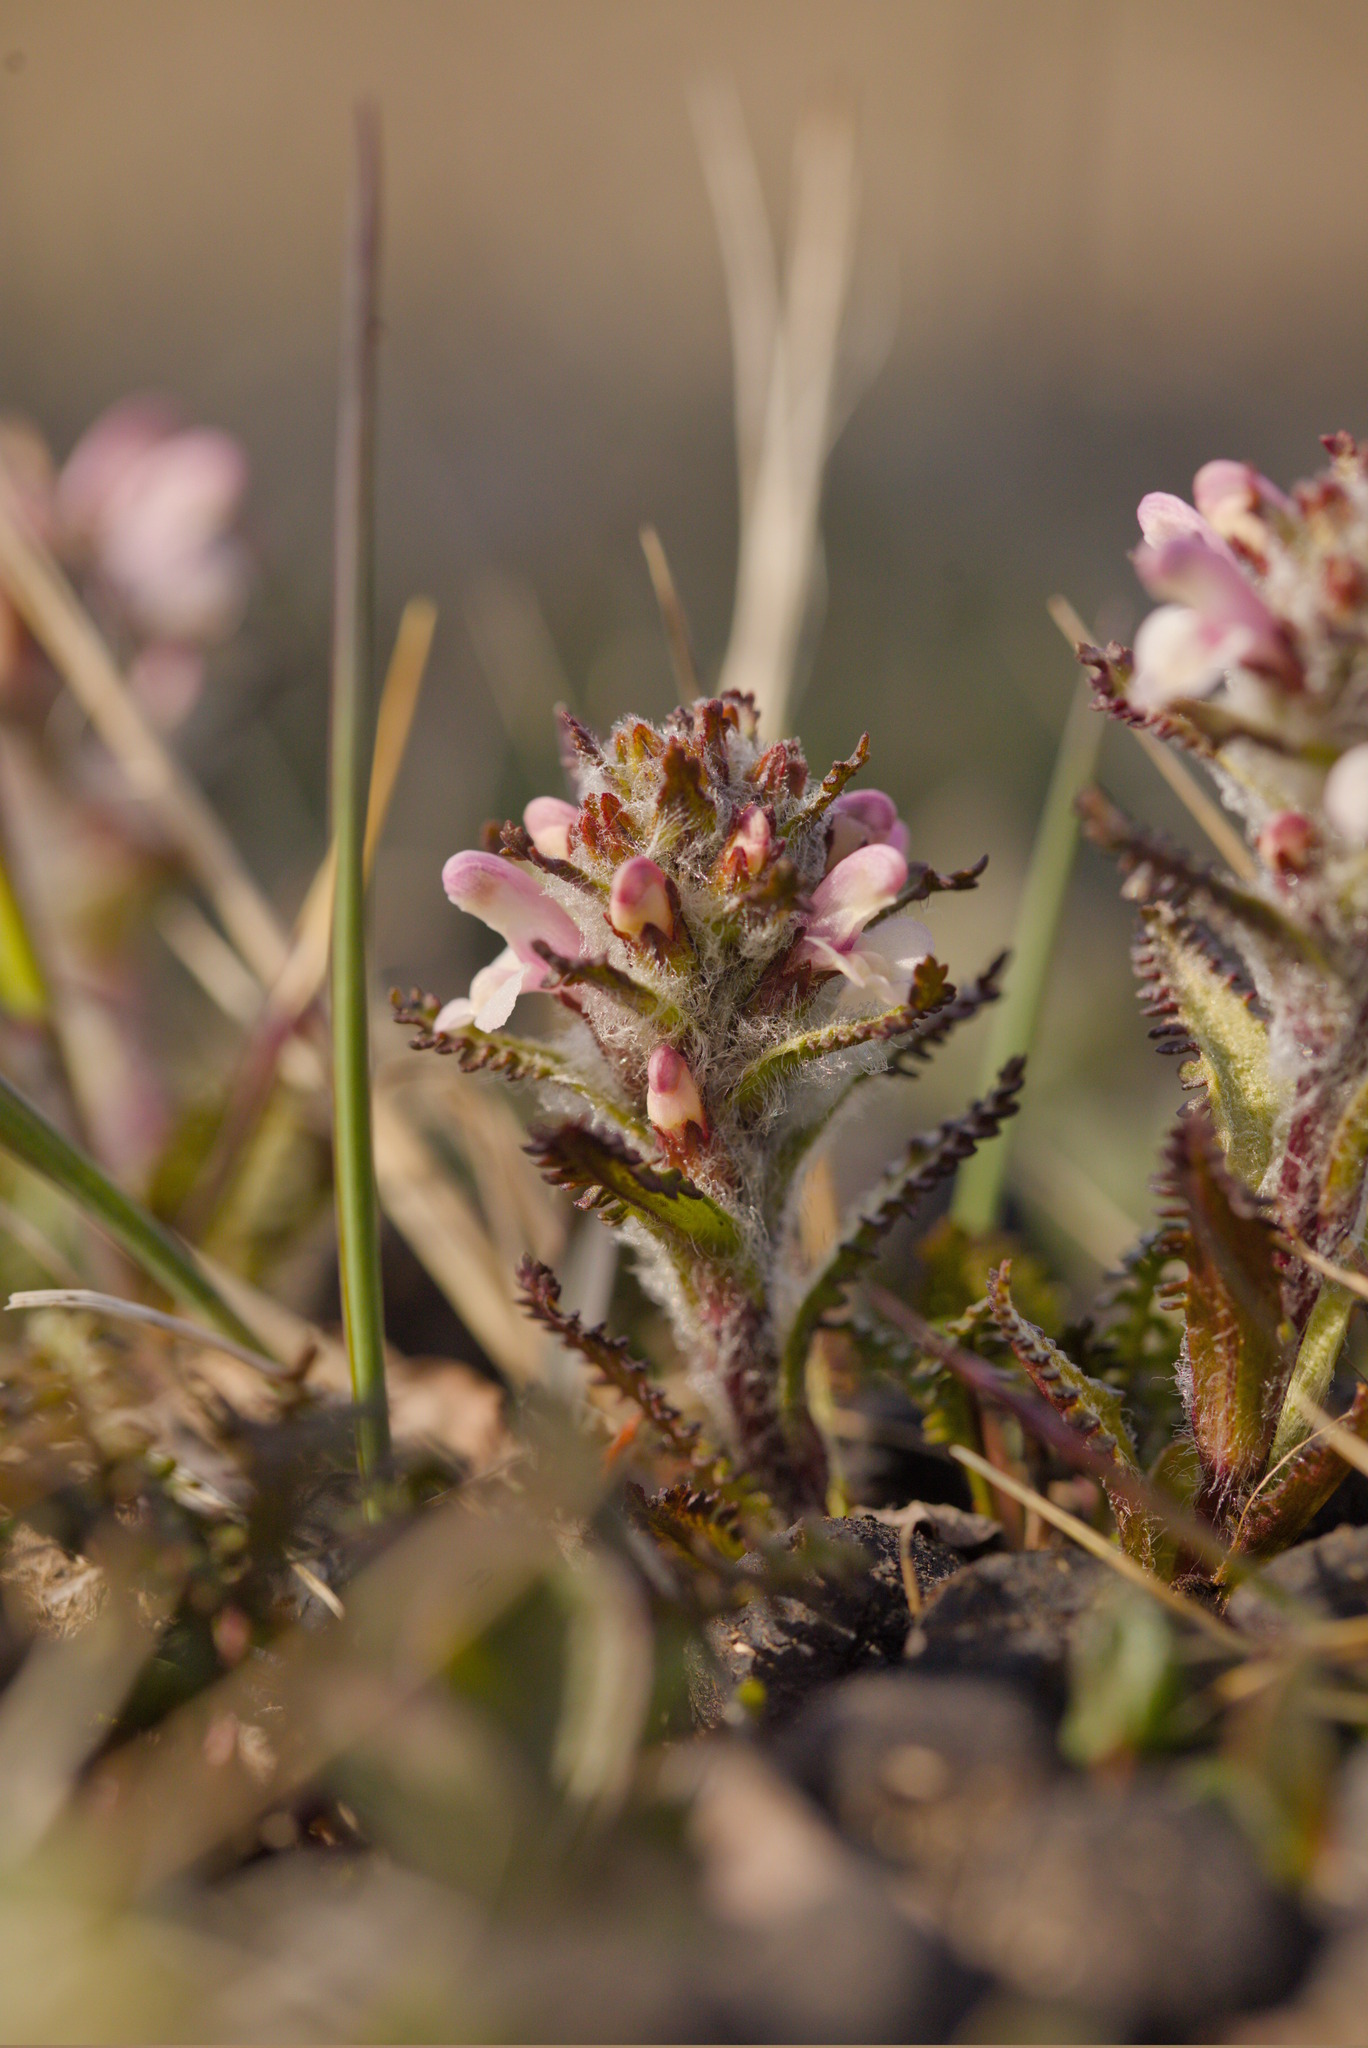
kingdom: Plantae
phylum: Tracheophyta
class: Magnoliopsida
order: Lamiales
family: Orobanchaceae
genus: Pedicularis
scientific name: Pedicularis hirsuta
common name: Hairy lousewort
